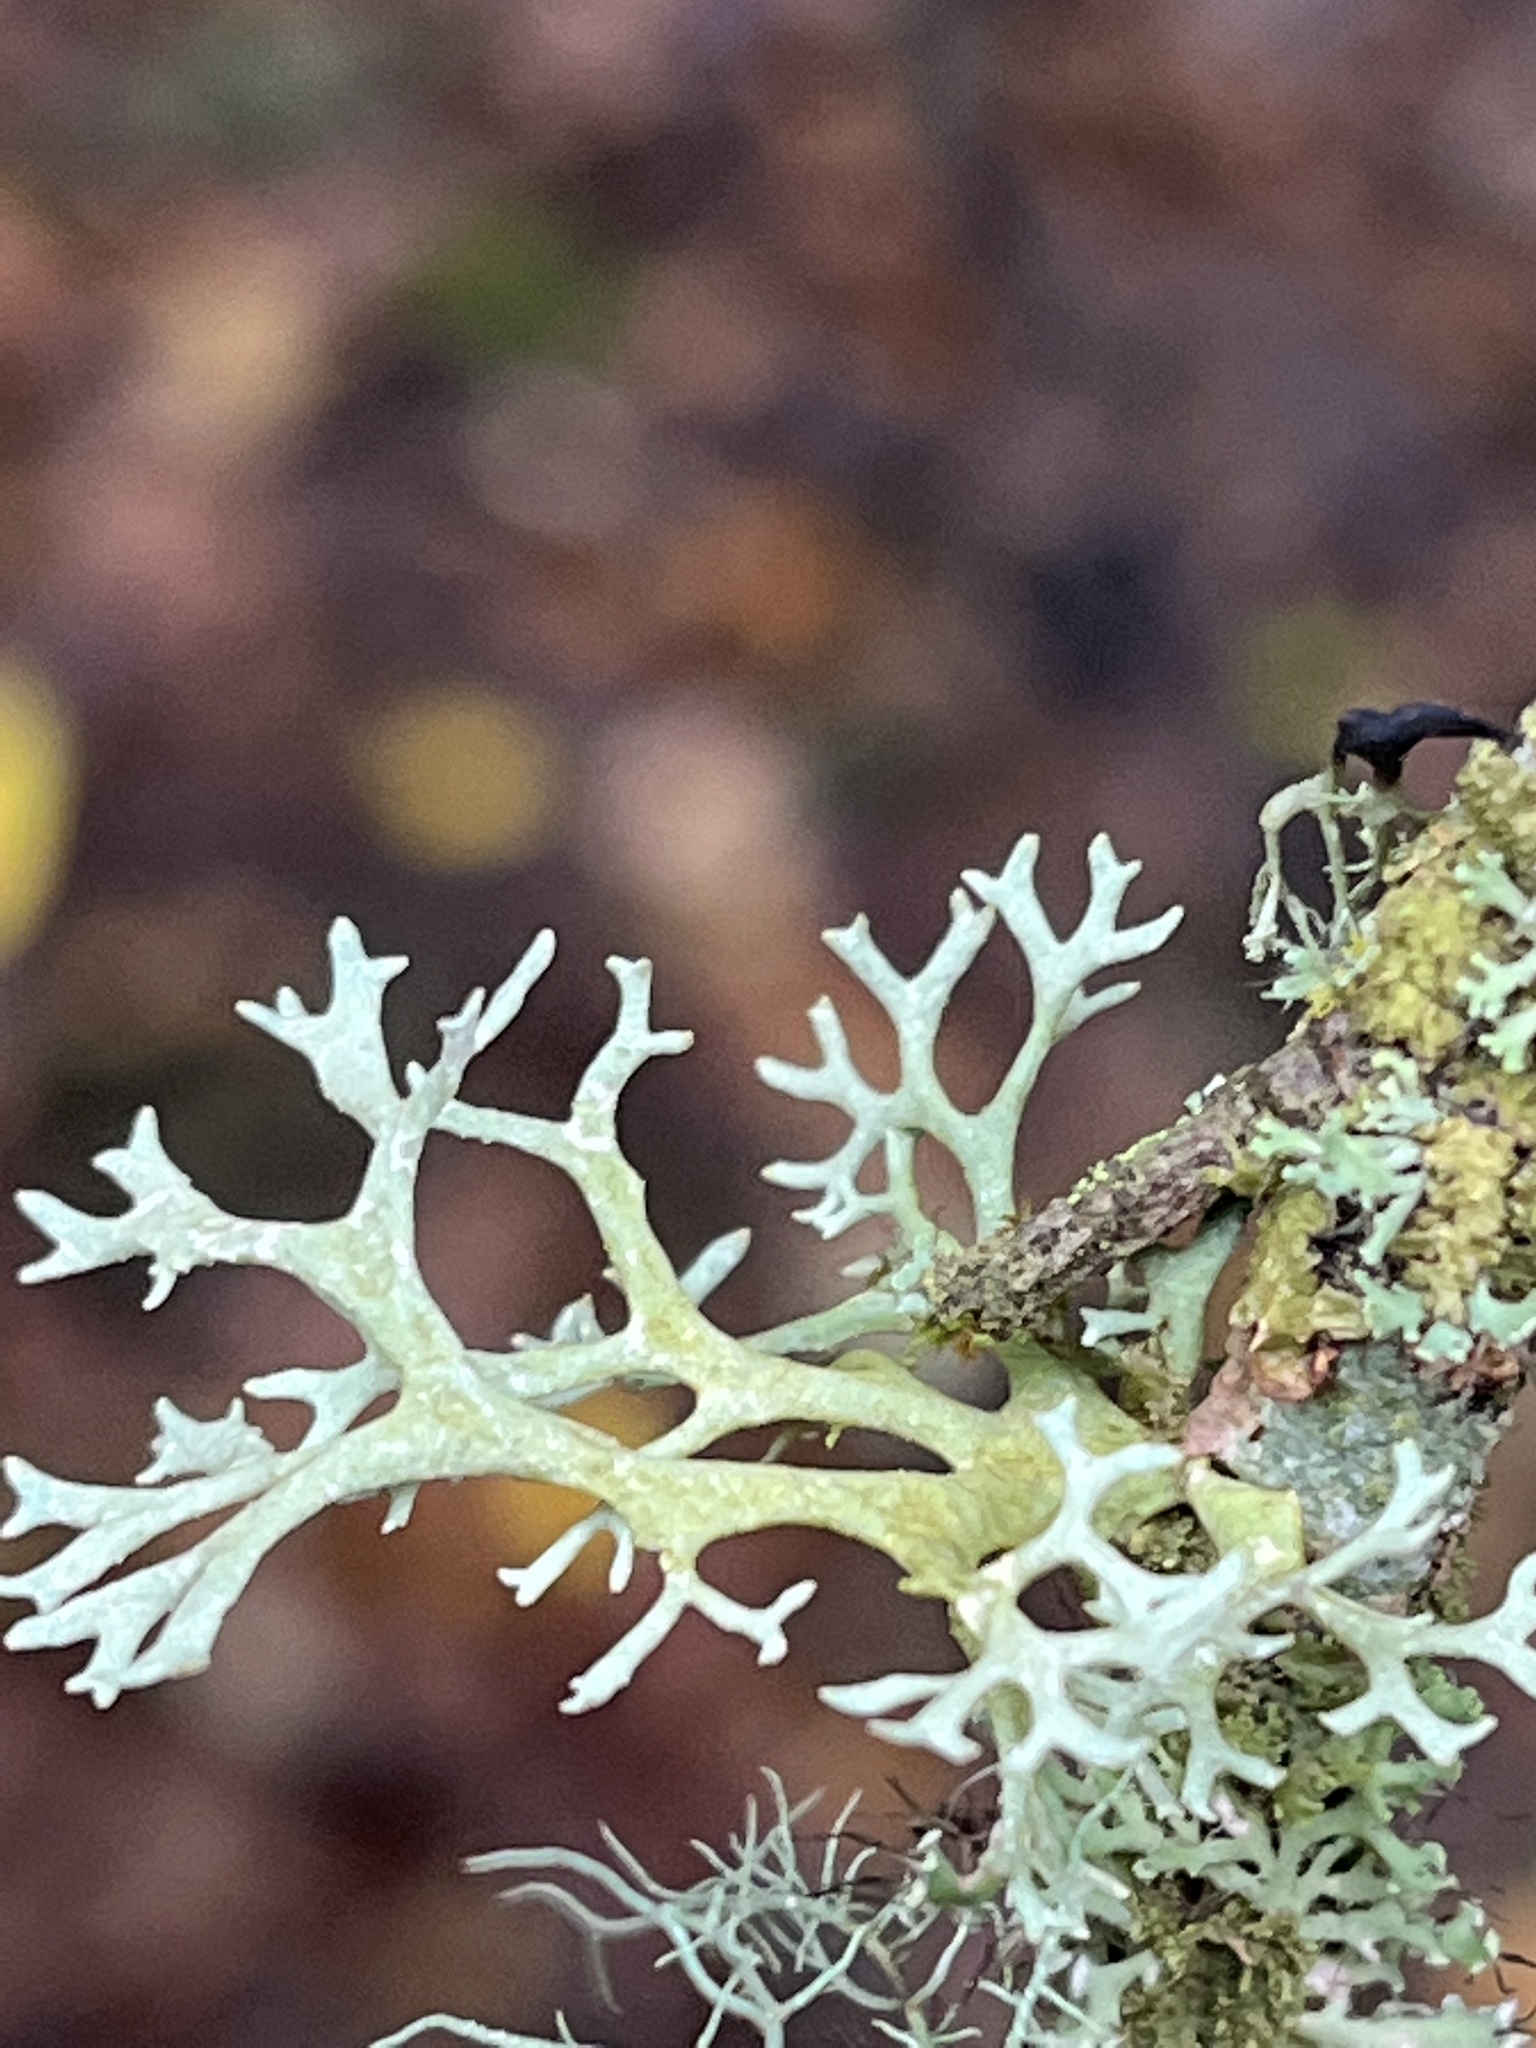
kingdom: Fungi
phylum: Ascomycota
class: Lecanoromycetes
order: Lecanorales
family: Parmeliaceae
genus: Evernia
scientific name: Evernia prunastri
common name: Oak moss
